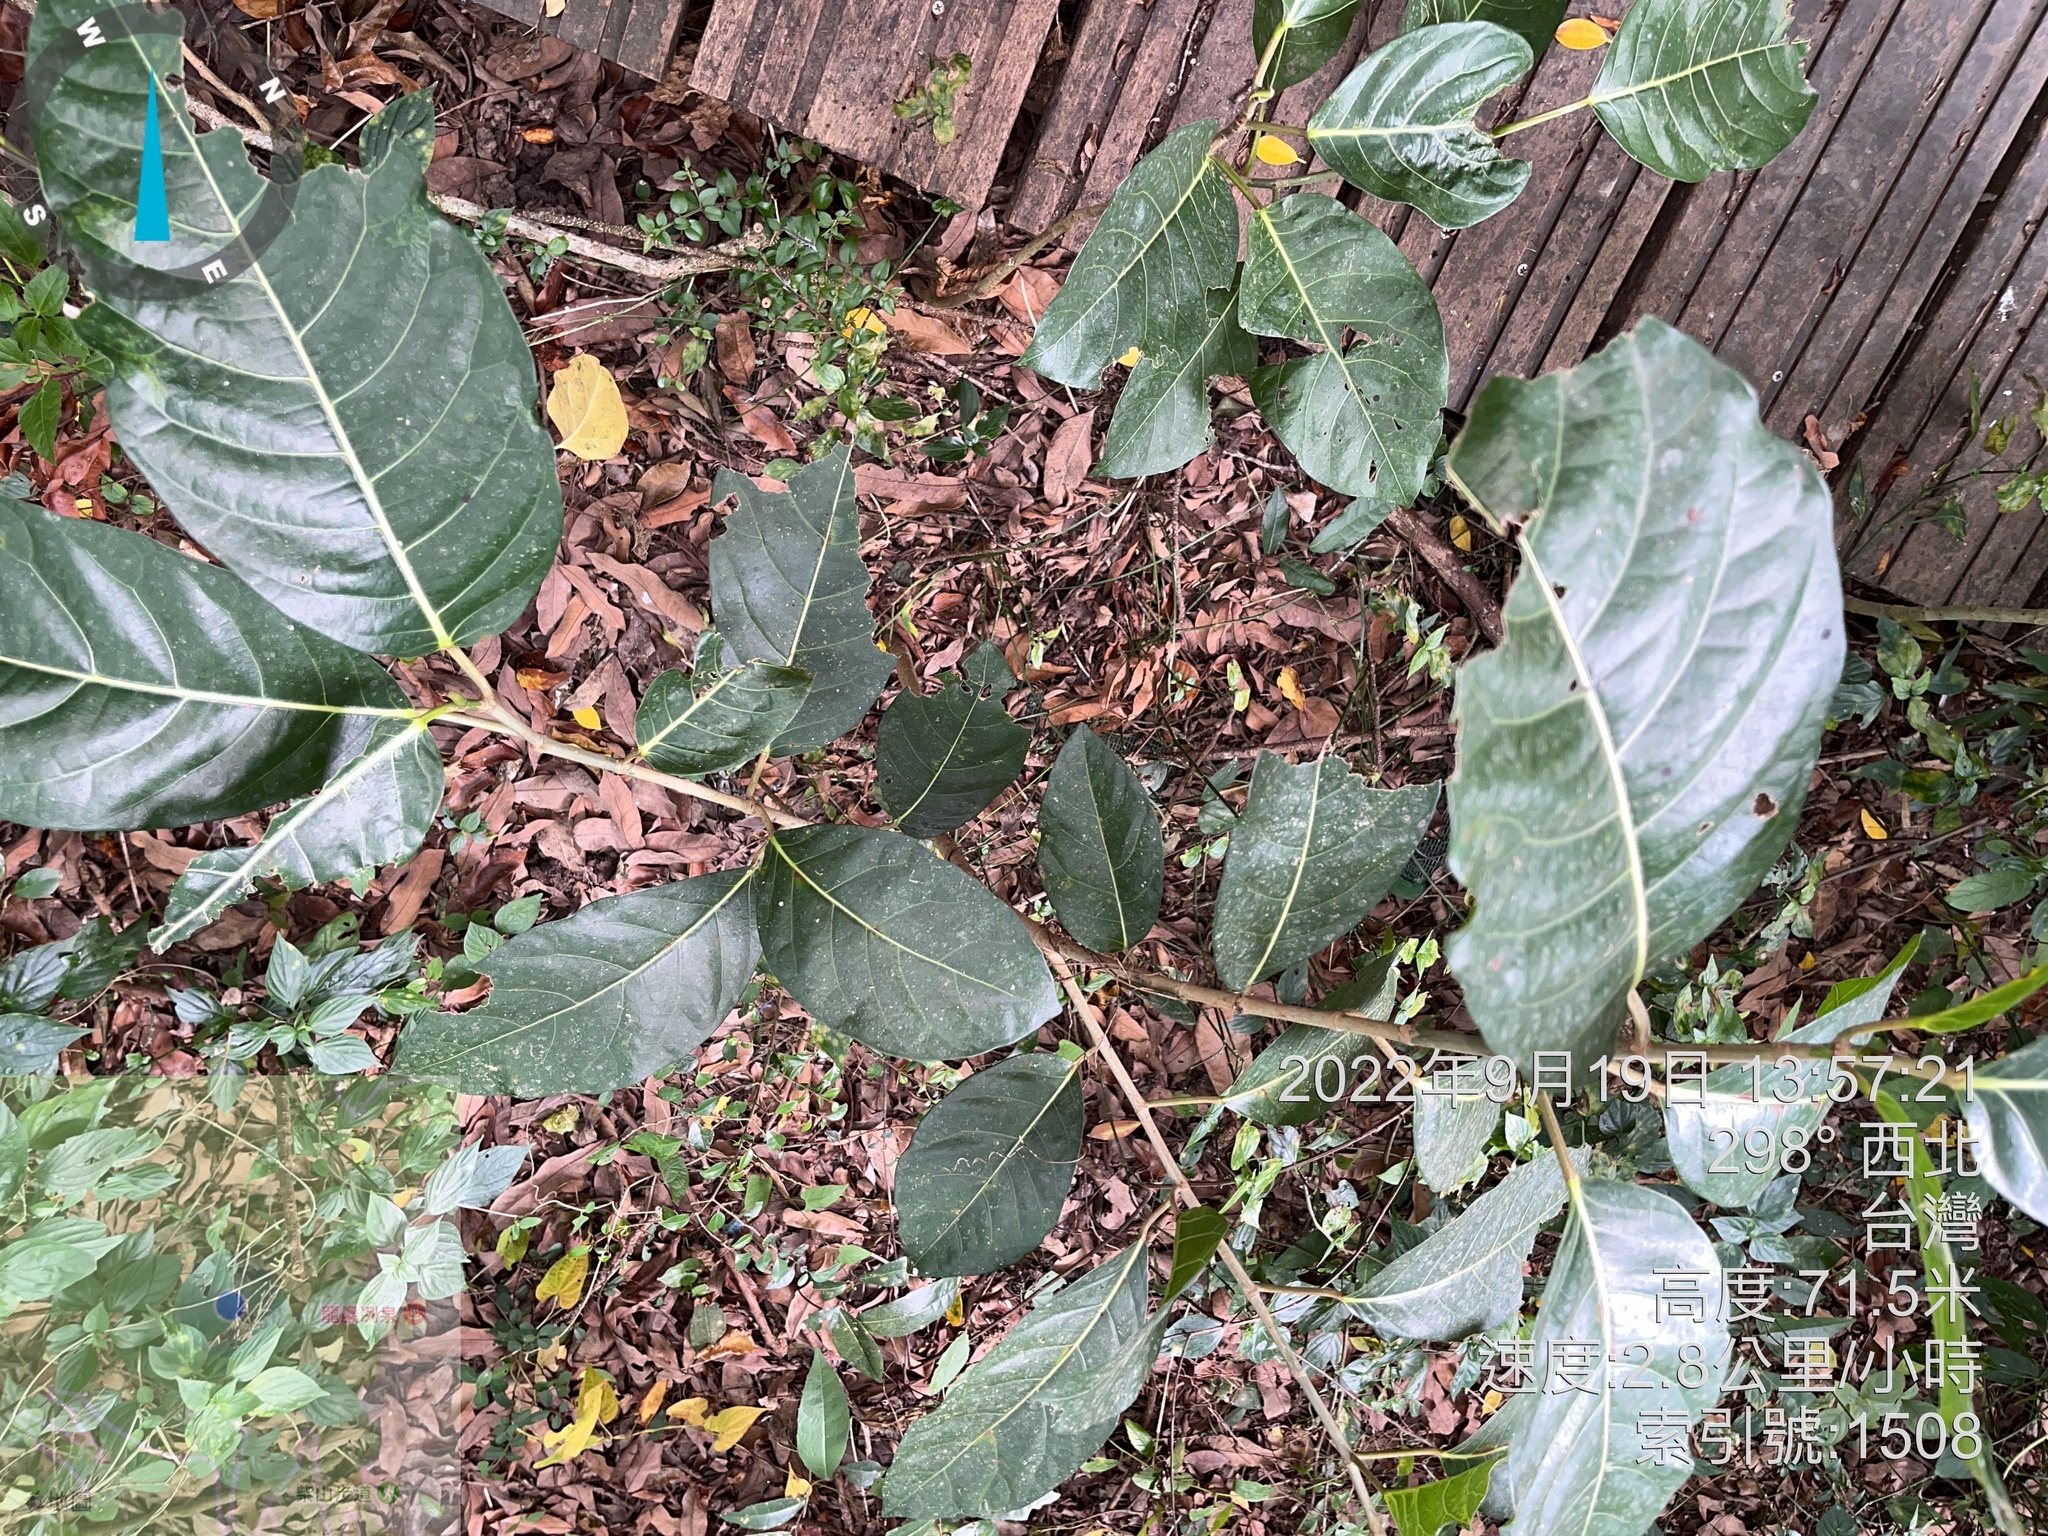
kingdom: Plantae
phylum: Tracheophyta
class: Magnoliopsida
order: Rosales
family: Moraceae
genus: Ficus
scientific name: Ficus septica
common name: Septic fig
